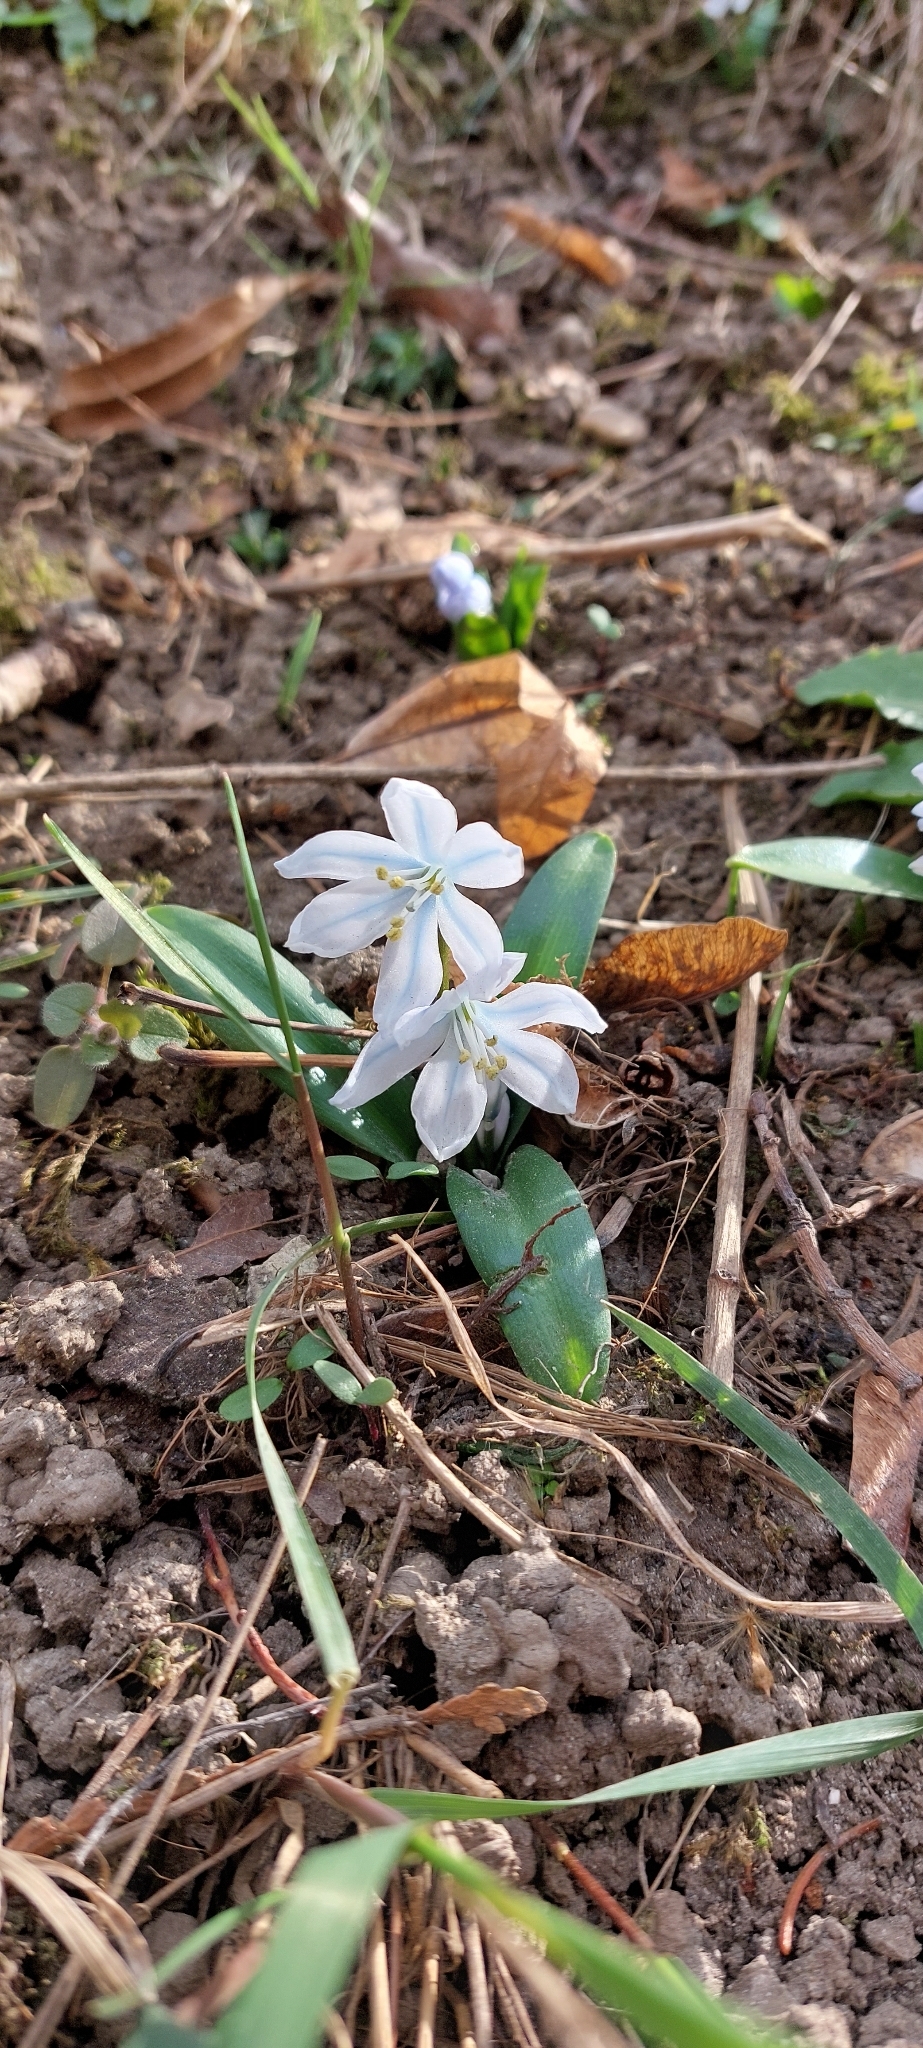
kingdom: Plantae
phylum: Tracheophyta
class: Liliopsida
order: Asparagales
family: Asparagaceae
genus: Scilla
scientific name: Scilla mischtschenkoana
